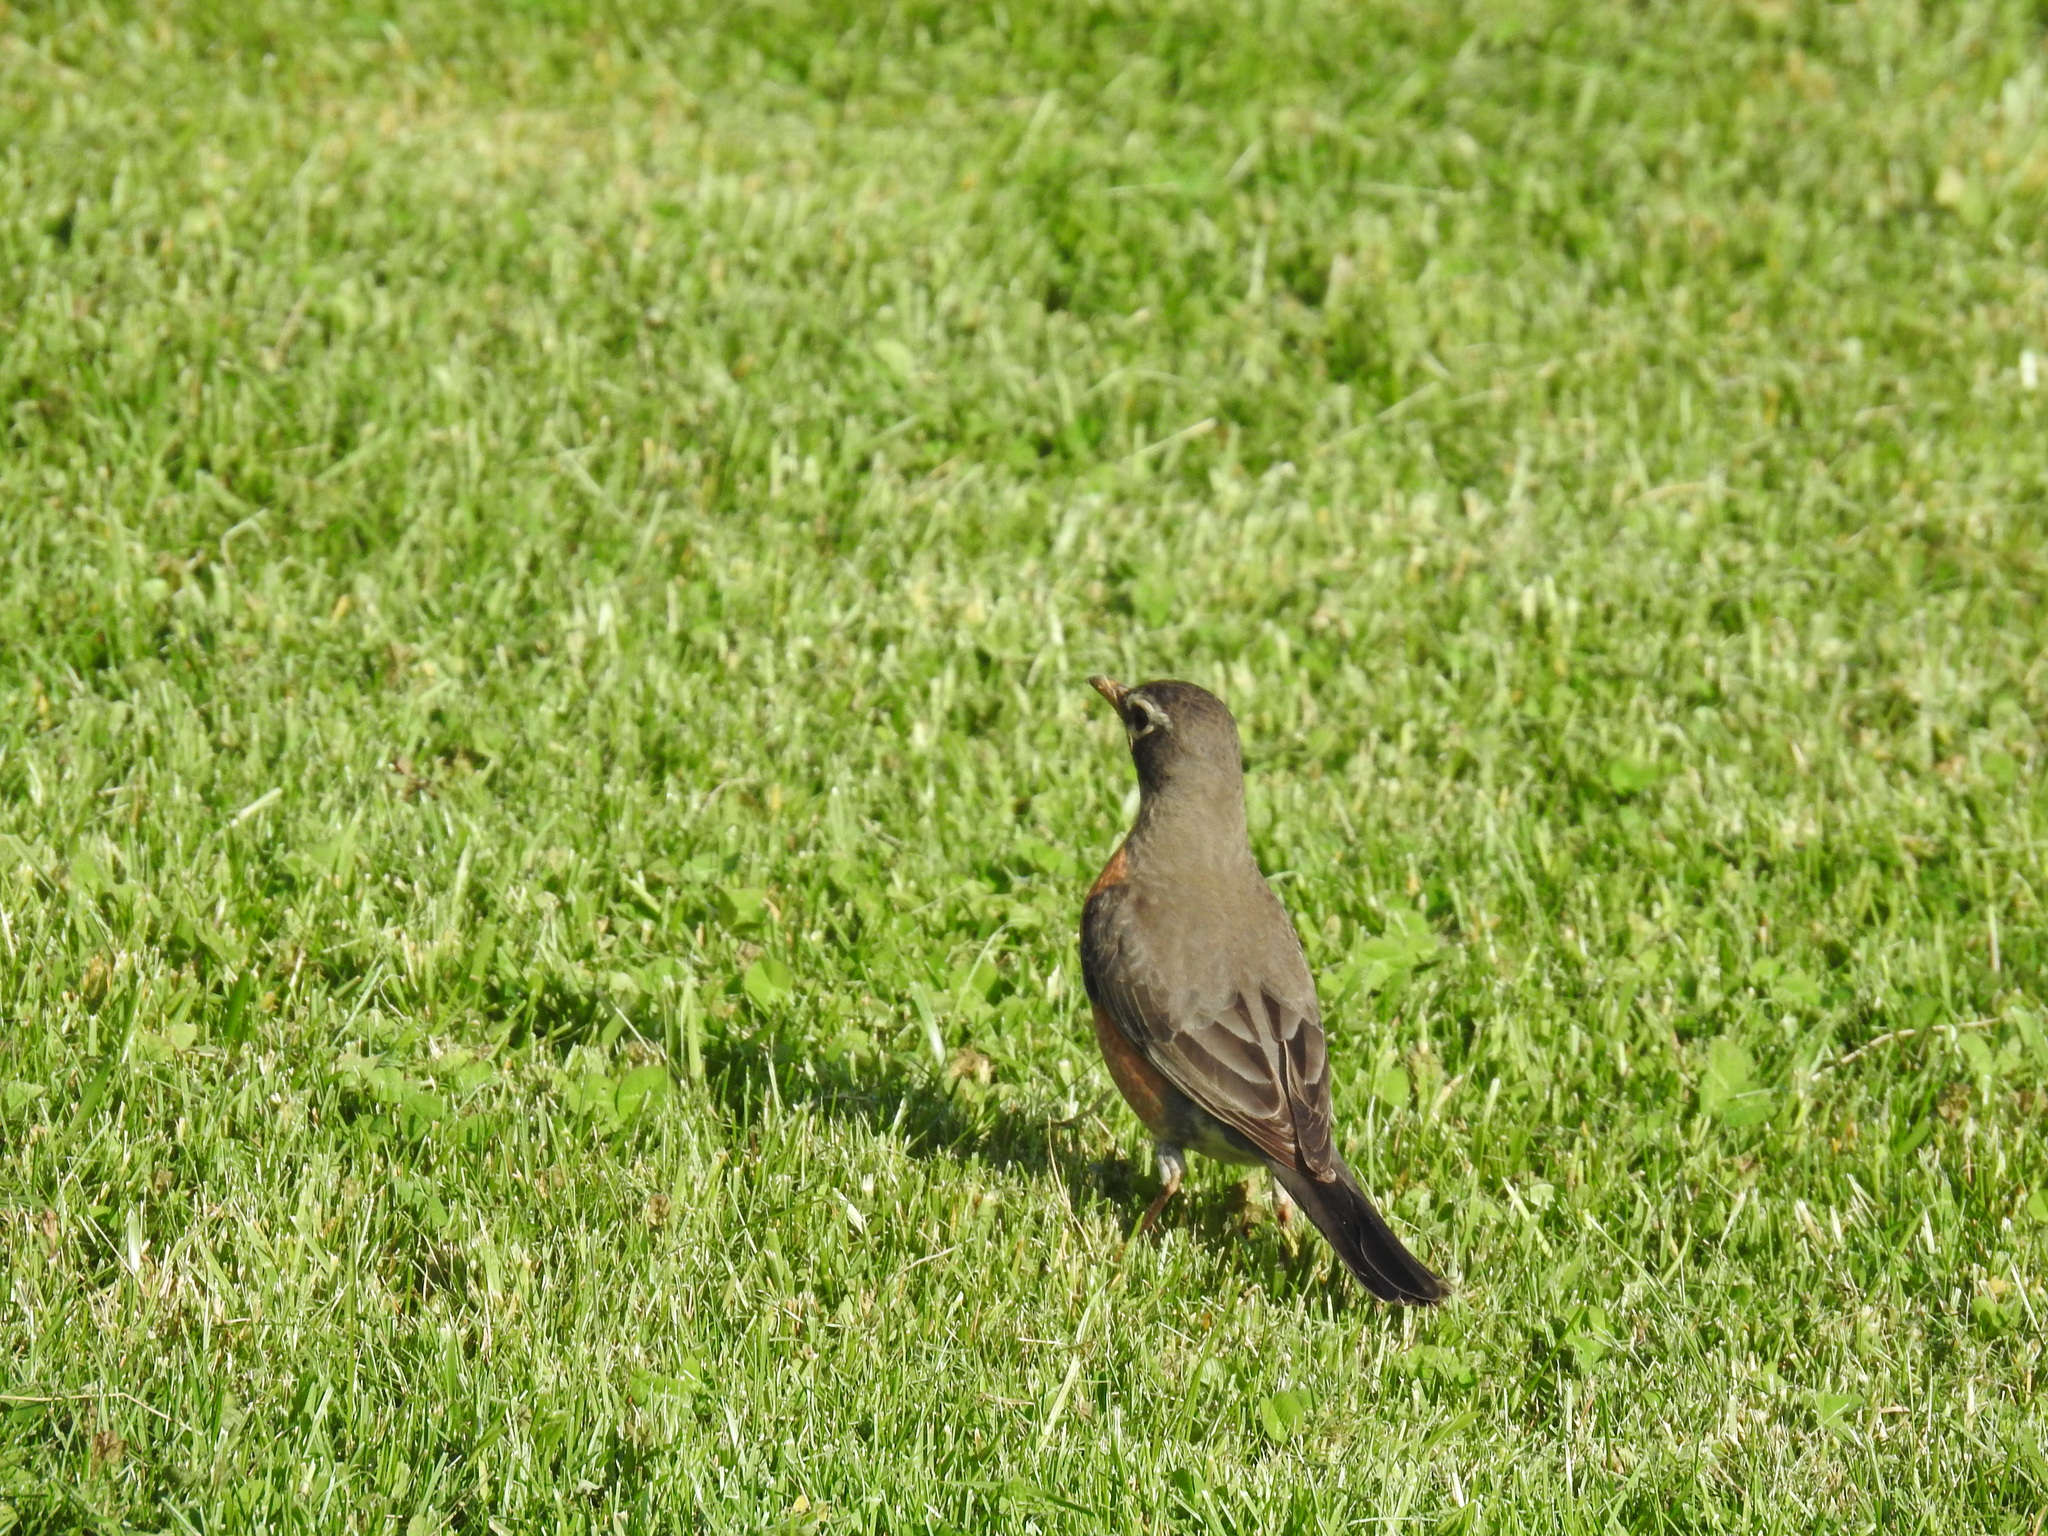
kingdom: Animalia
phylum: Chordata
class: Aves
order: Passeriformes
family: Turdidae
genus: Turdus
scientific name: Turdus migratorius
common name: American robin
